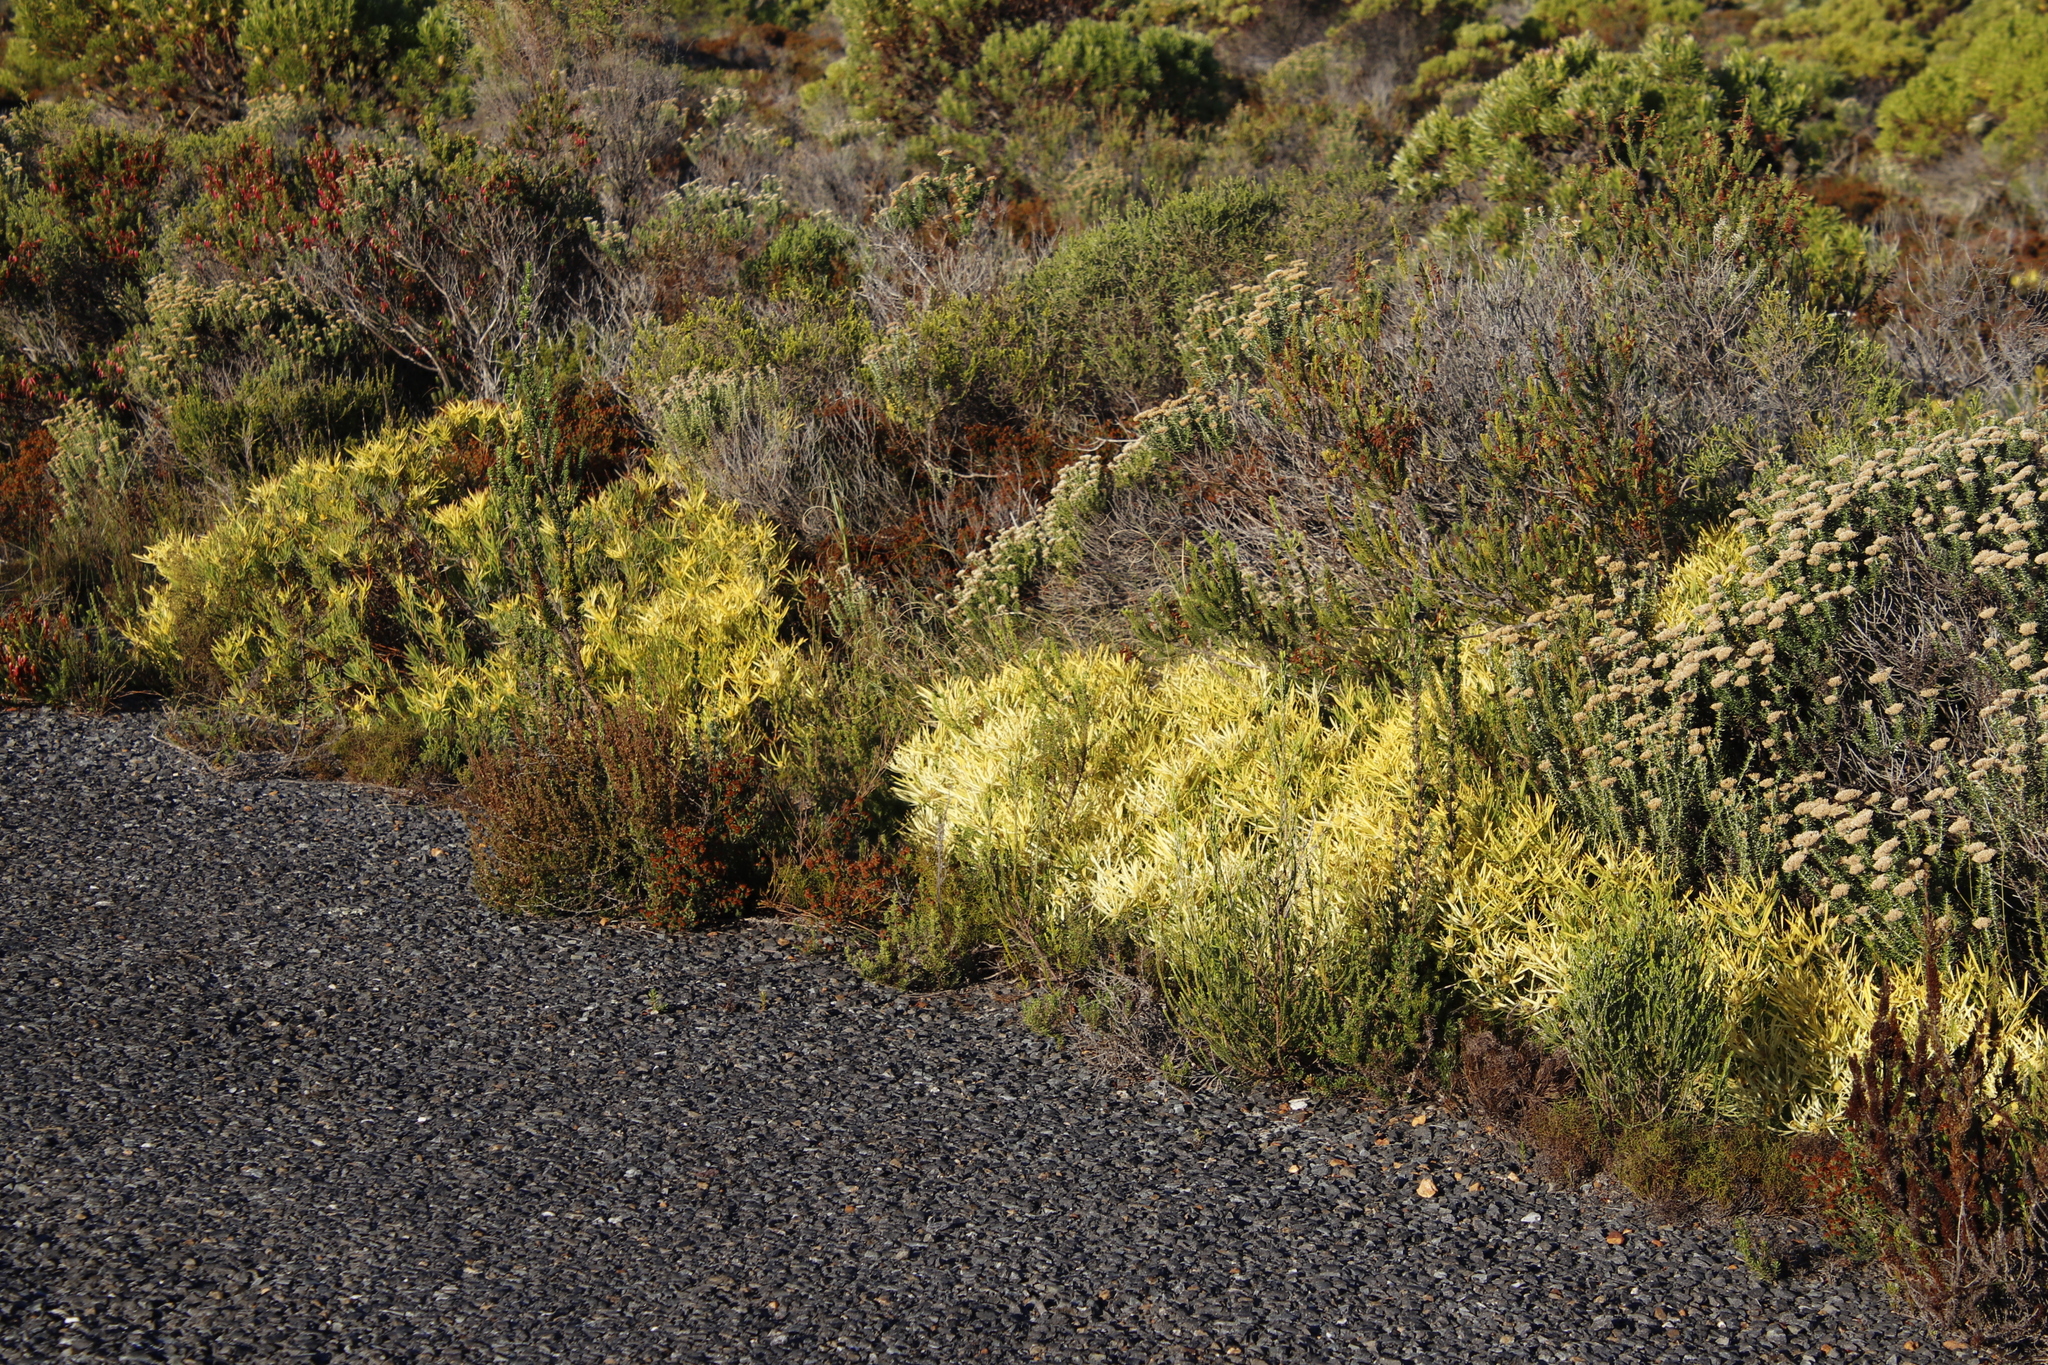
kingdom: Plantae
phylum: Tracheophyta
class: Magnoliopsida
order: Proteales
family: Proteaceae
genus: Leucadendron
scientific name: Leucadendron salignum
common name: Common sunshine conebush
